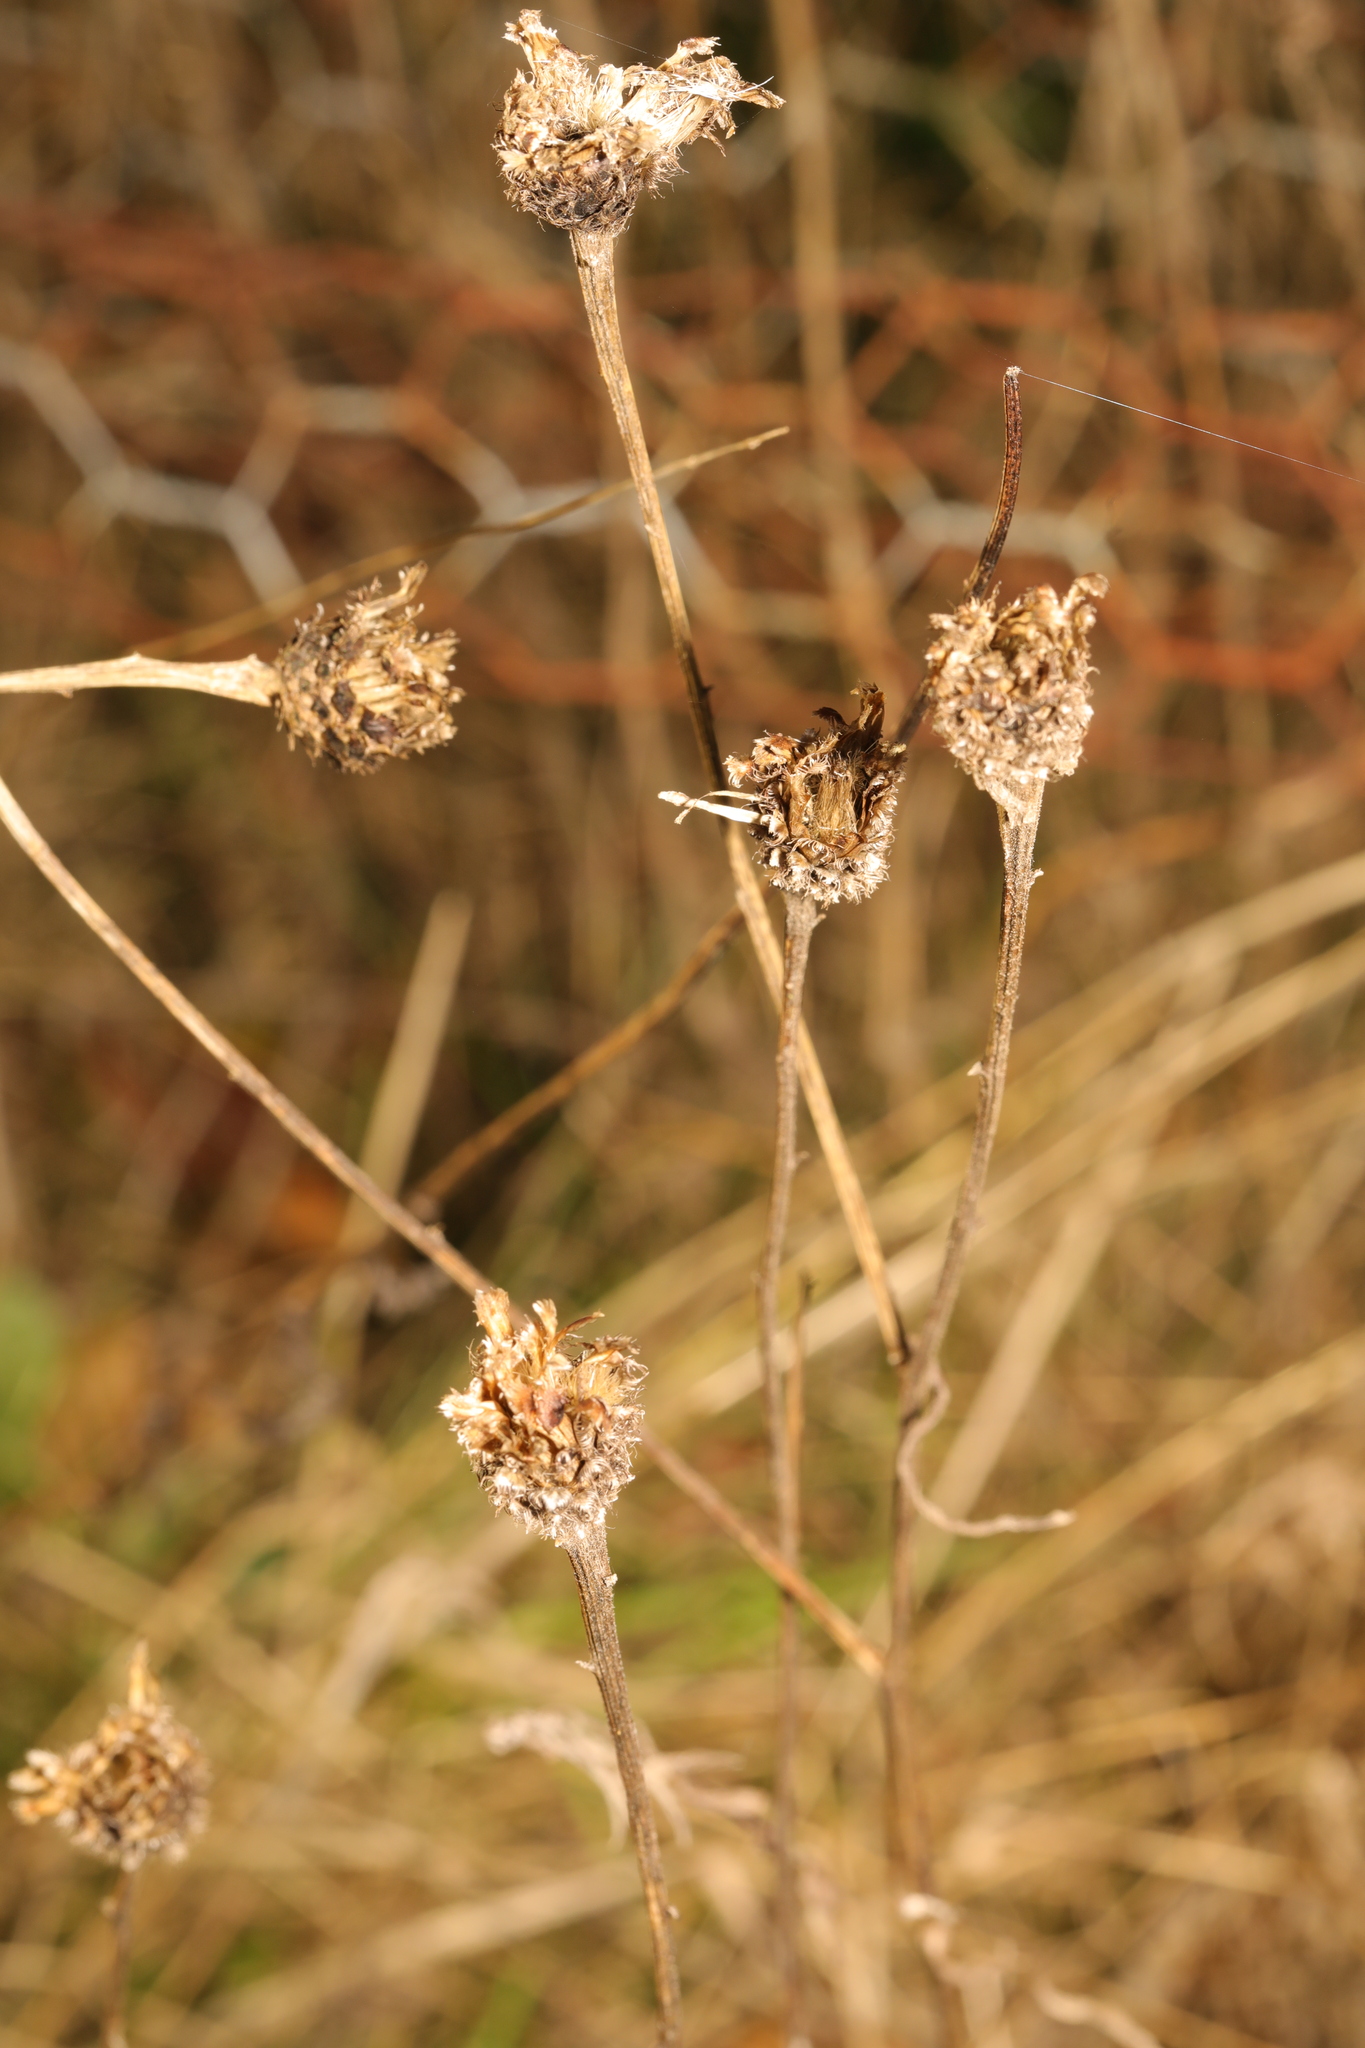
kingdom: Plantae
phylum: Tracheophyta
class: Magnoliopsida
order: Asterales
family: Asteraceae
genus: Centaurea
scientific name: Centaurea nigra
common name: Lesser knapweed
